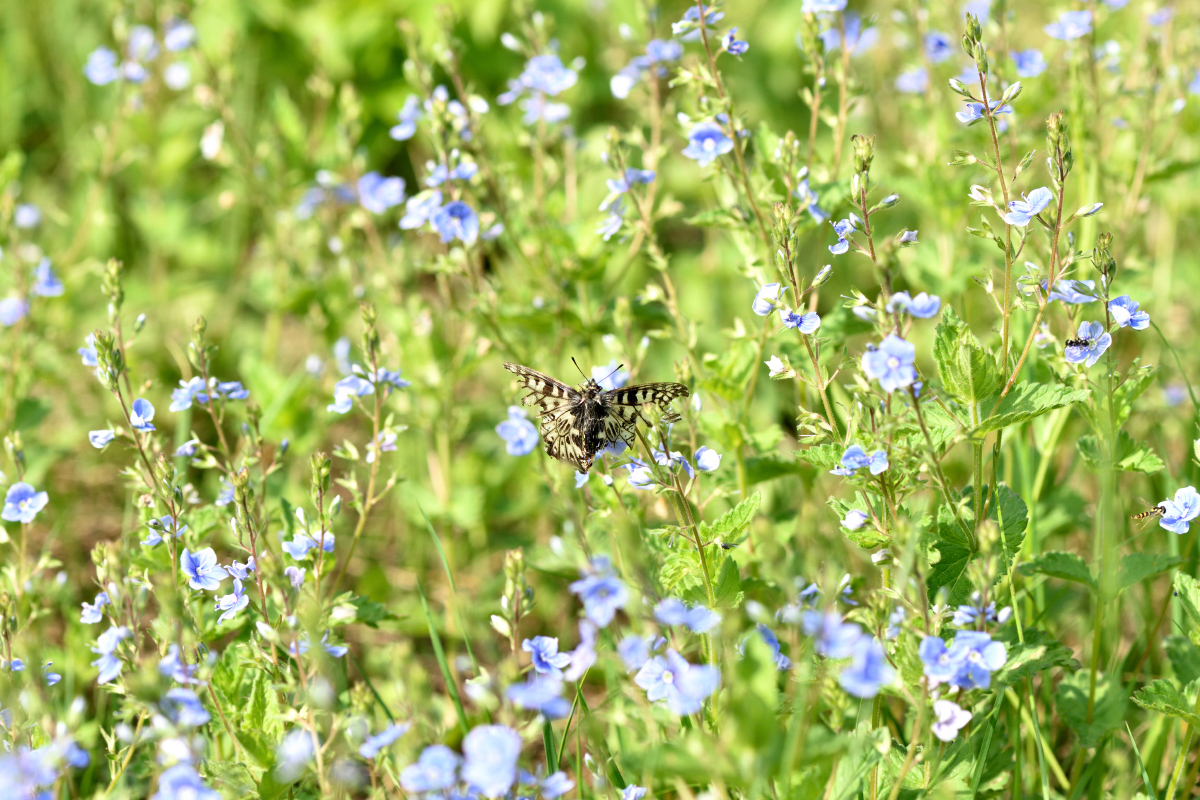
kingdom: Animalia
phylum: Arthropoda
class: Insecta
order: Lepidoptera
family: Papilionidae
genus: Zerynthia
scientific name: Zerynthia polyxena
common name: Southern festoon
